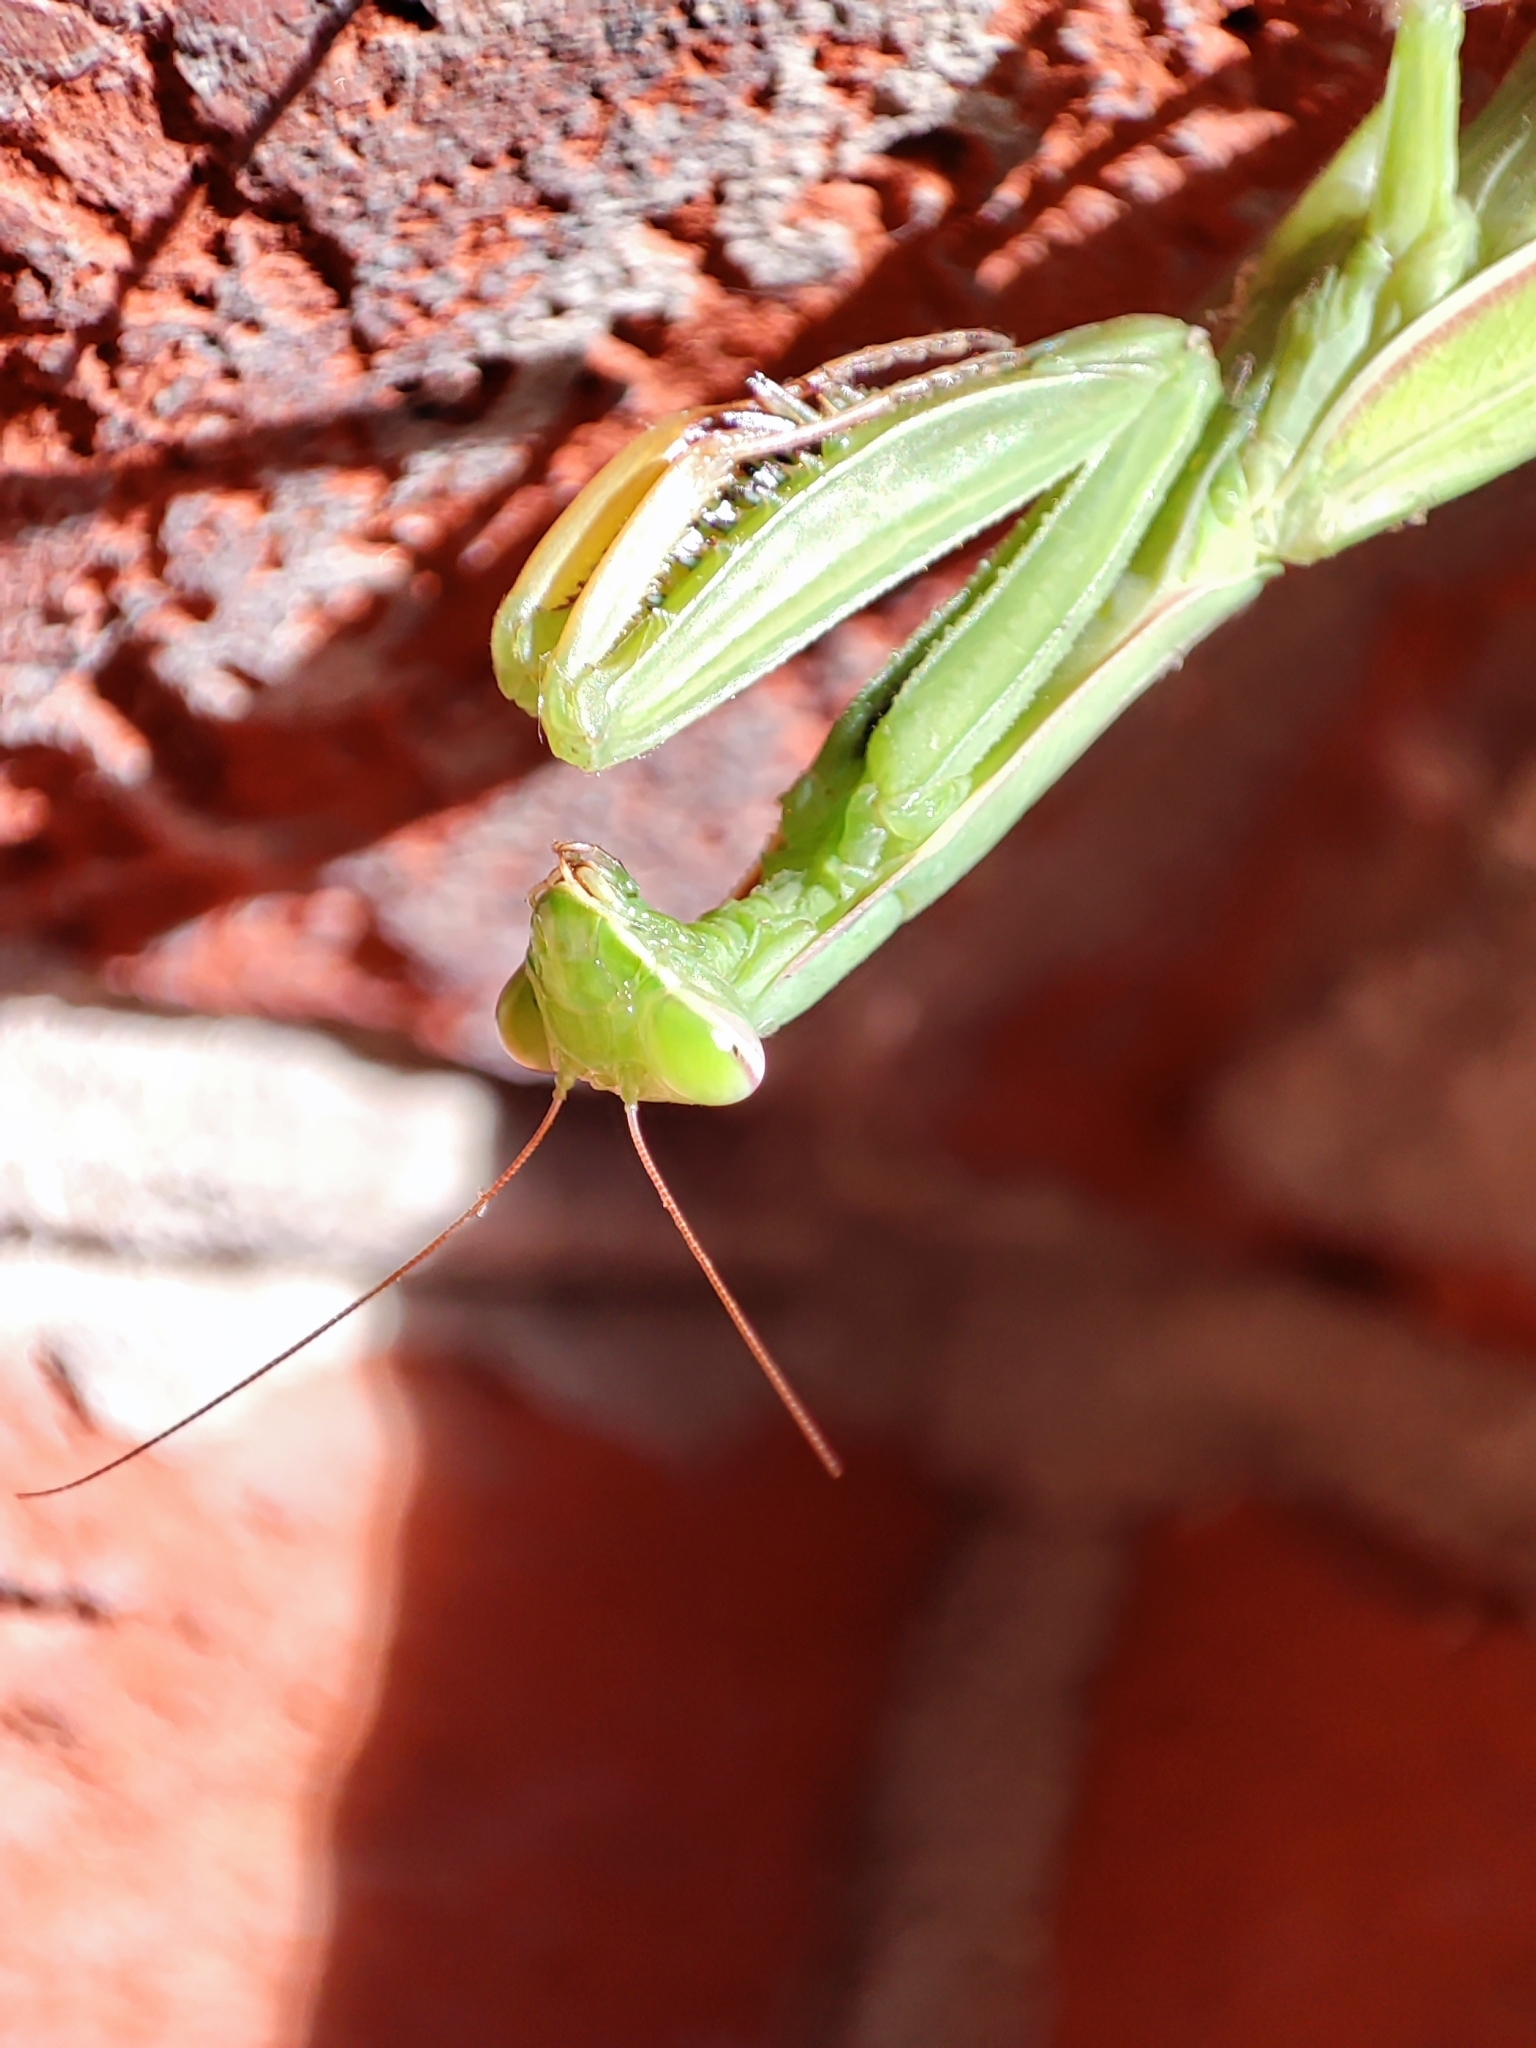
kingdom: Animalia
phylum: Arthropoda
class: Insecta
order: Mantodea
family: Mantidae
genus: Mantis
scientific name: Mantis religiosa
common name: Praying mantis
